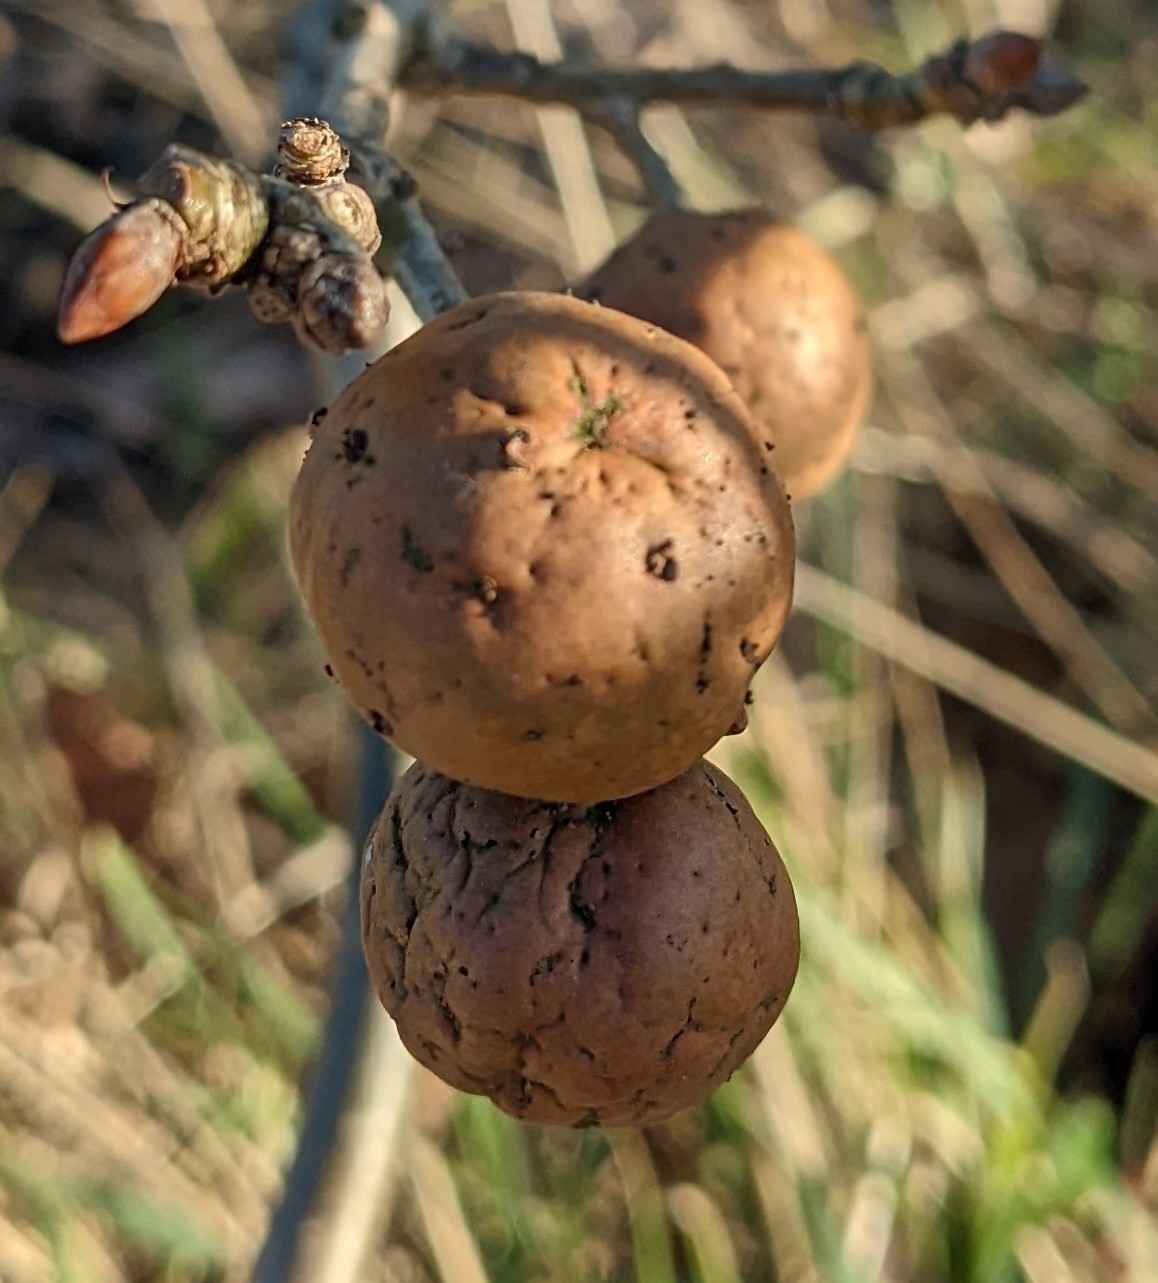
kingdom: Animalia
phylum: Arthropoda
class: Insecta
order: Hymenoptera
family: Cynipidae
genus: Andricus
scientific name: Andricus kollari
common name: Marble gall
